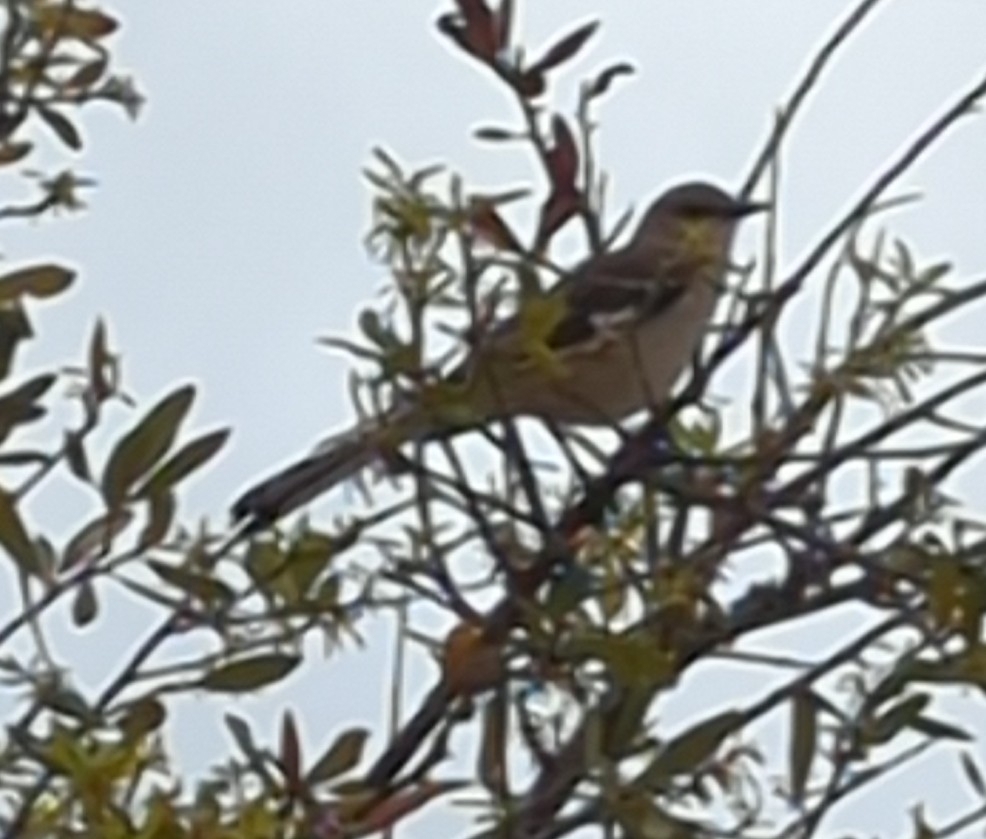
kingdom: Animalia
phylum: Chordata
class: Aves
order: Passeriformes
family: Mimidae
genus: Mimus
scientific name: Mimus polyglottos
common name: Northern mockingbird
